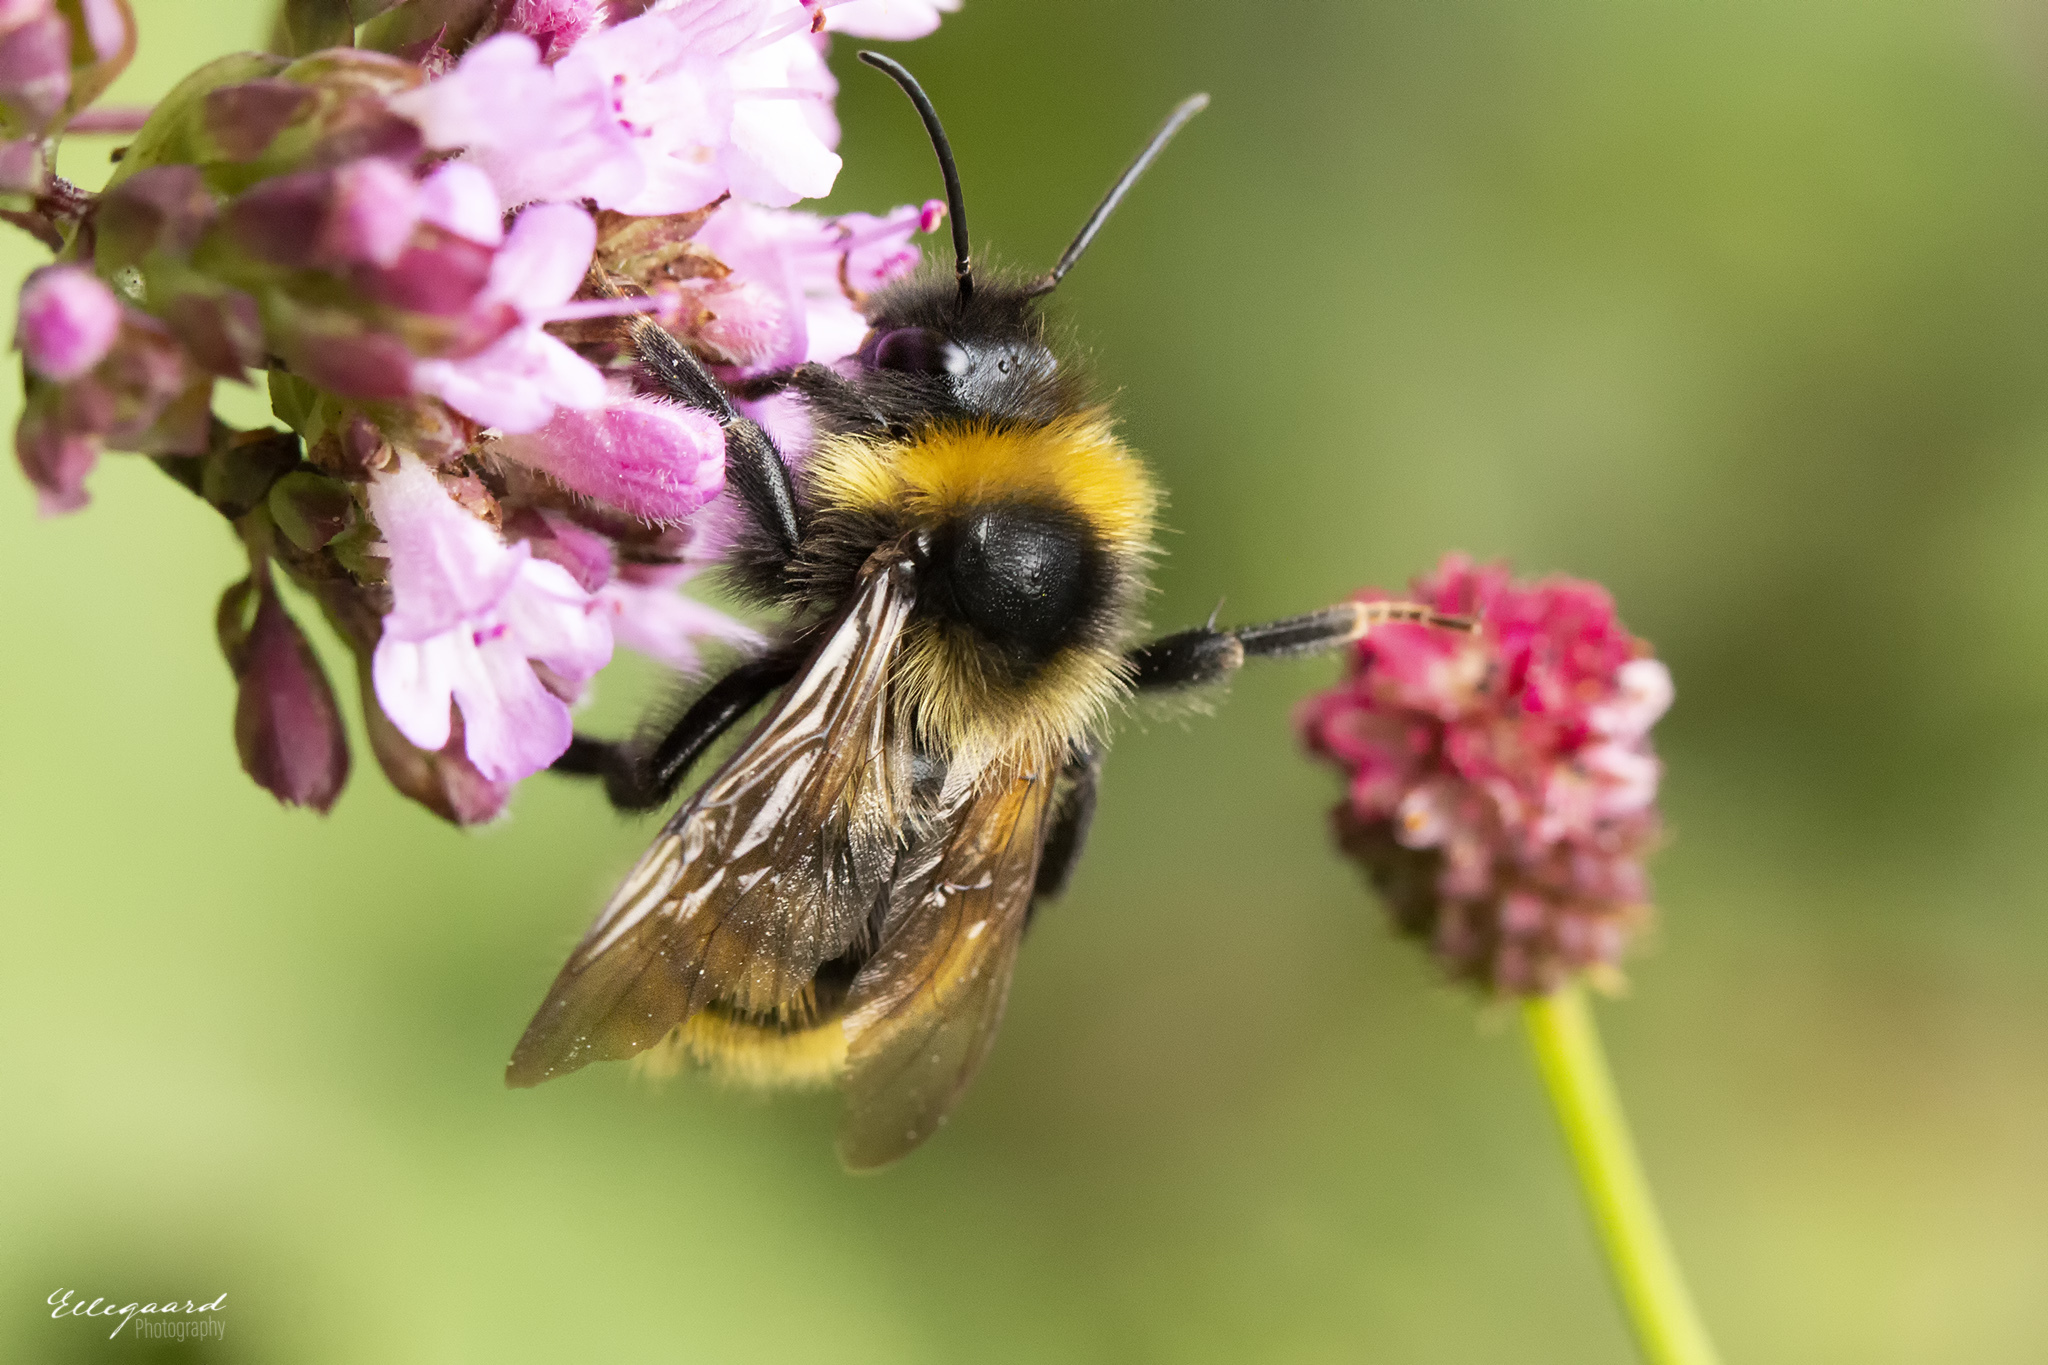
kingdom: Animalia
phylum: Arthropoda
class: Insecta
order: Hymenoptera
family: Apidae
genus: Bombus
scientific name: Bombus campestris
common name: Field cuckoo-bee
